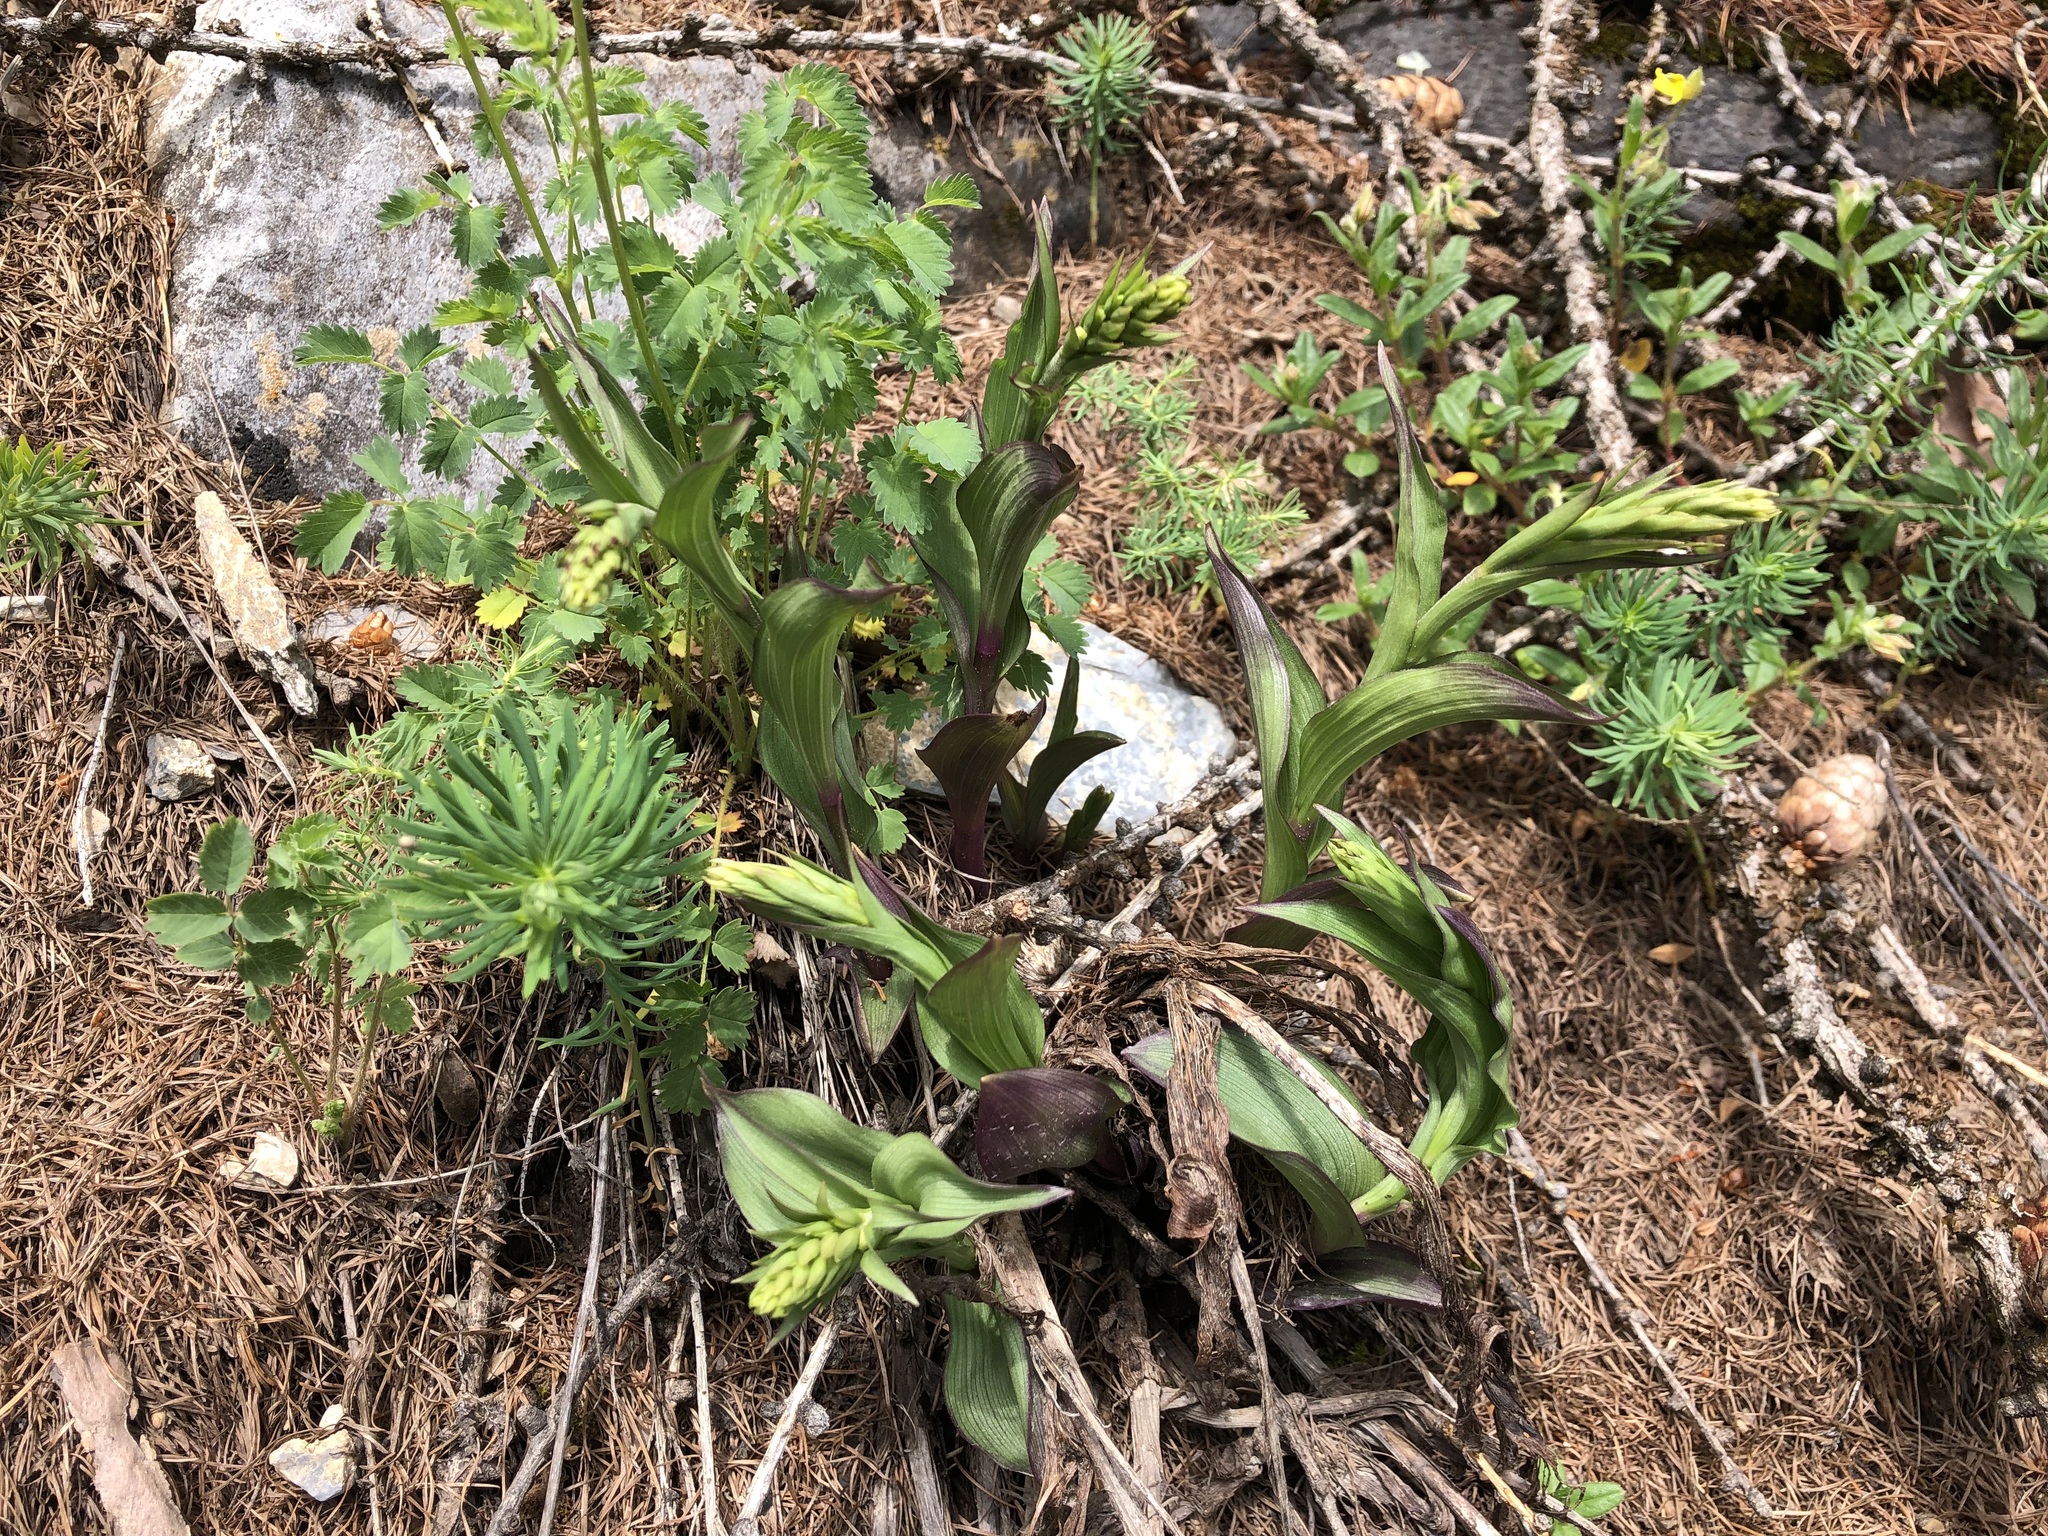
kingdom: Plantae
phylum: Tracheophyta
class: Liliopsida
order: Asparagales
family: Orchidaceae
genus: Epipactis
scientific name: Epipactis atrorubens
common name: Dark-red helleborine
